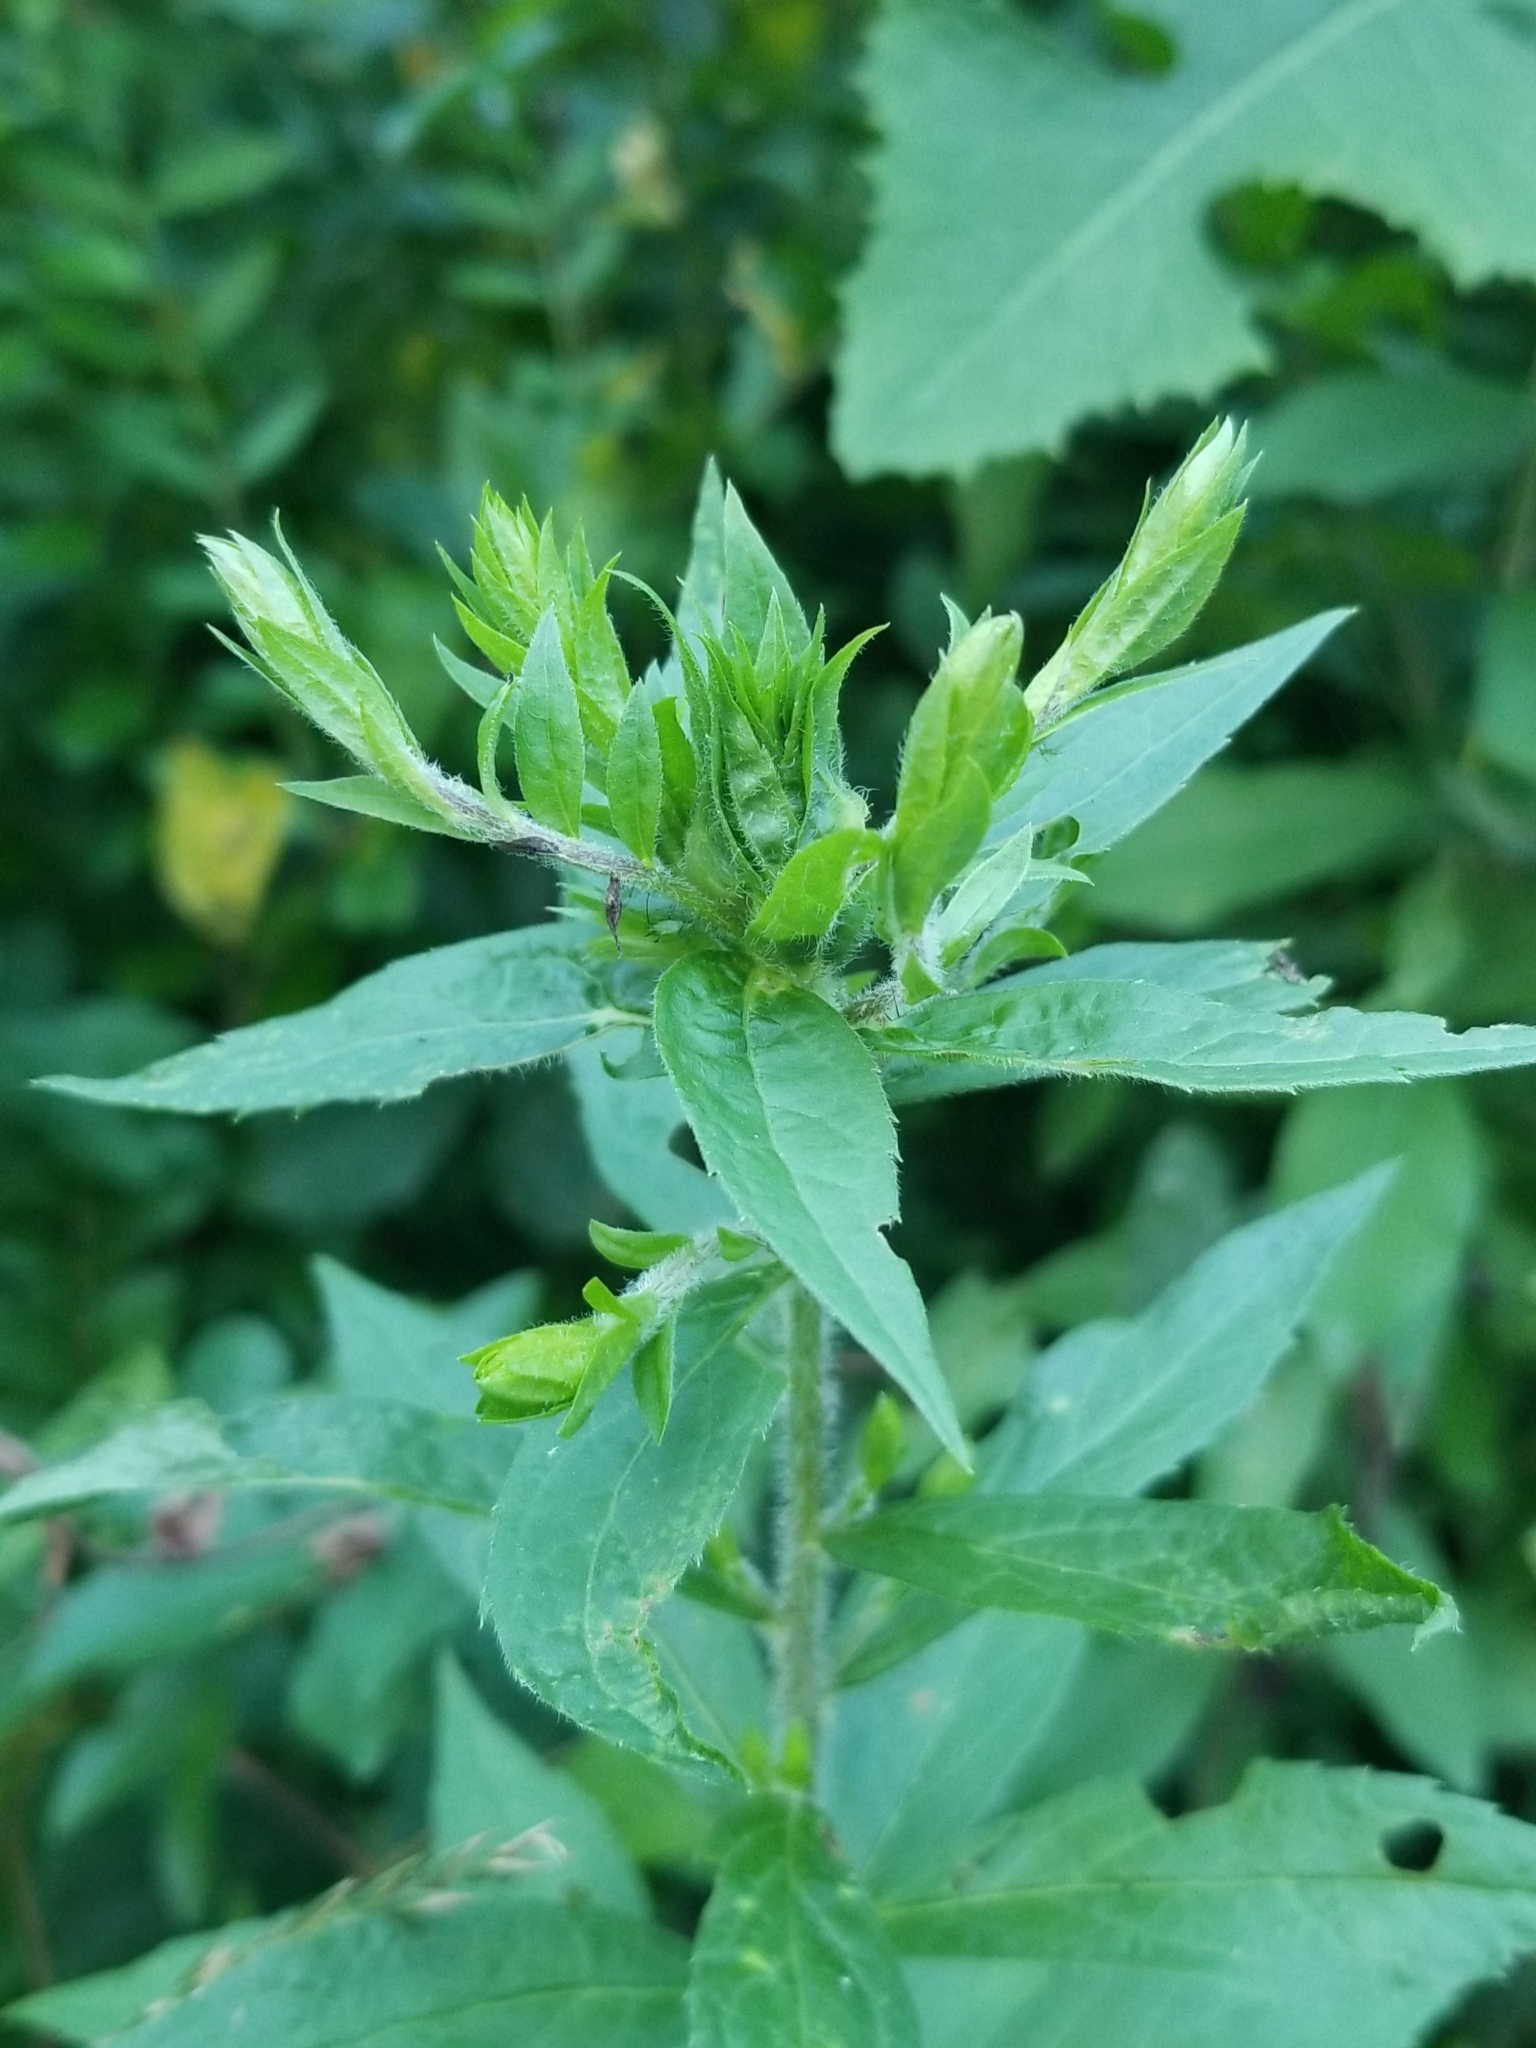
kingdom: Animalia
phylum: Arthropoda
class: Insecta
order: Diptera
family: Cecidomyiidae
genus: Dasineura
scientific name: Dasineura folliculi
